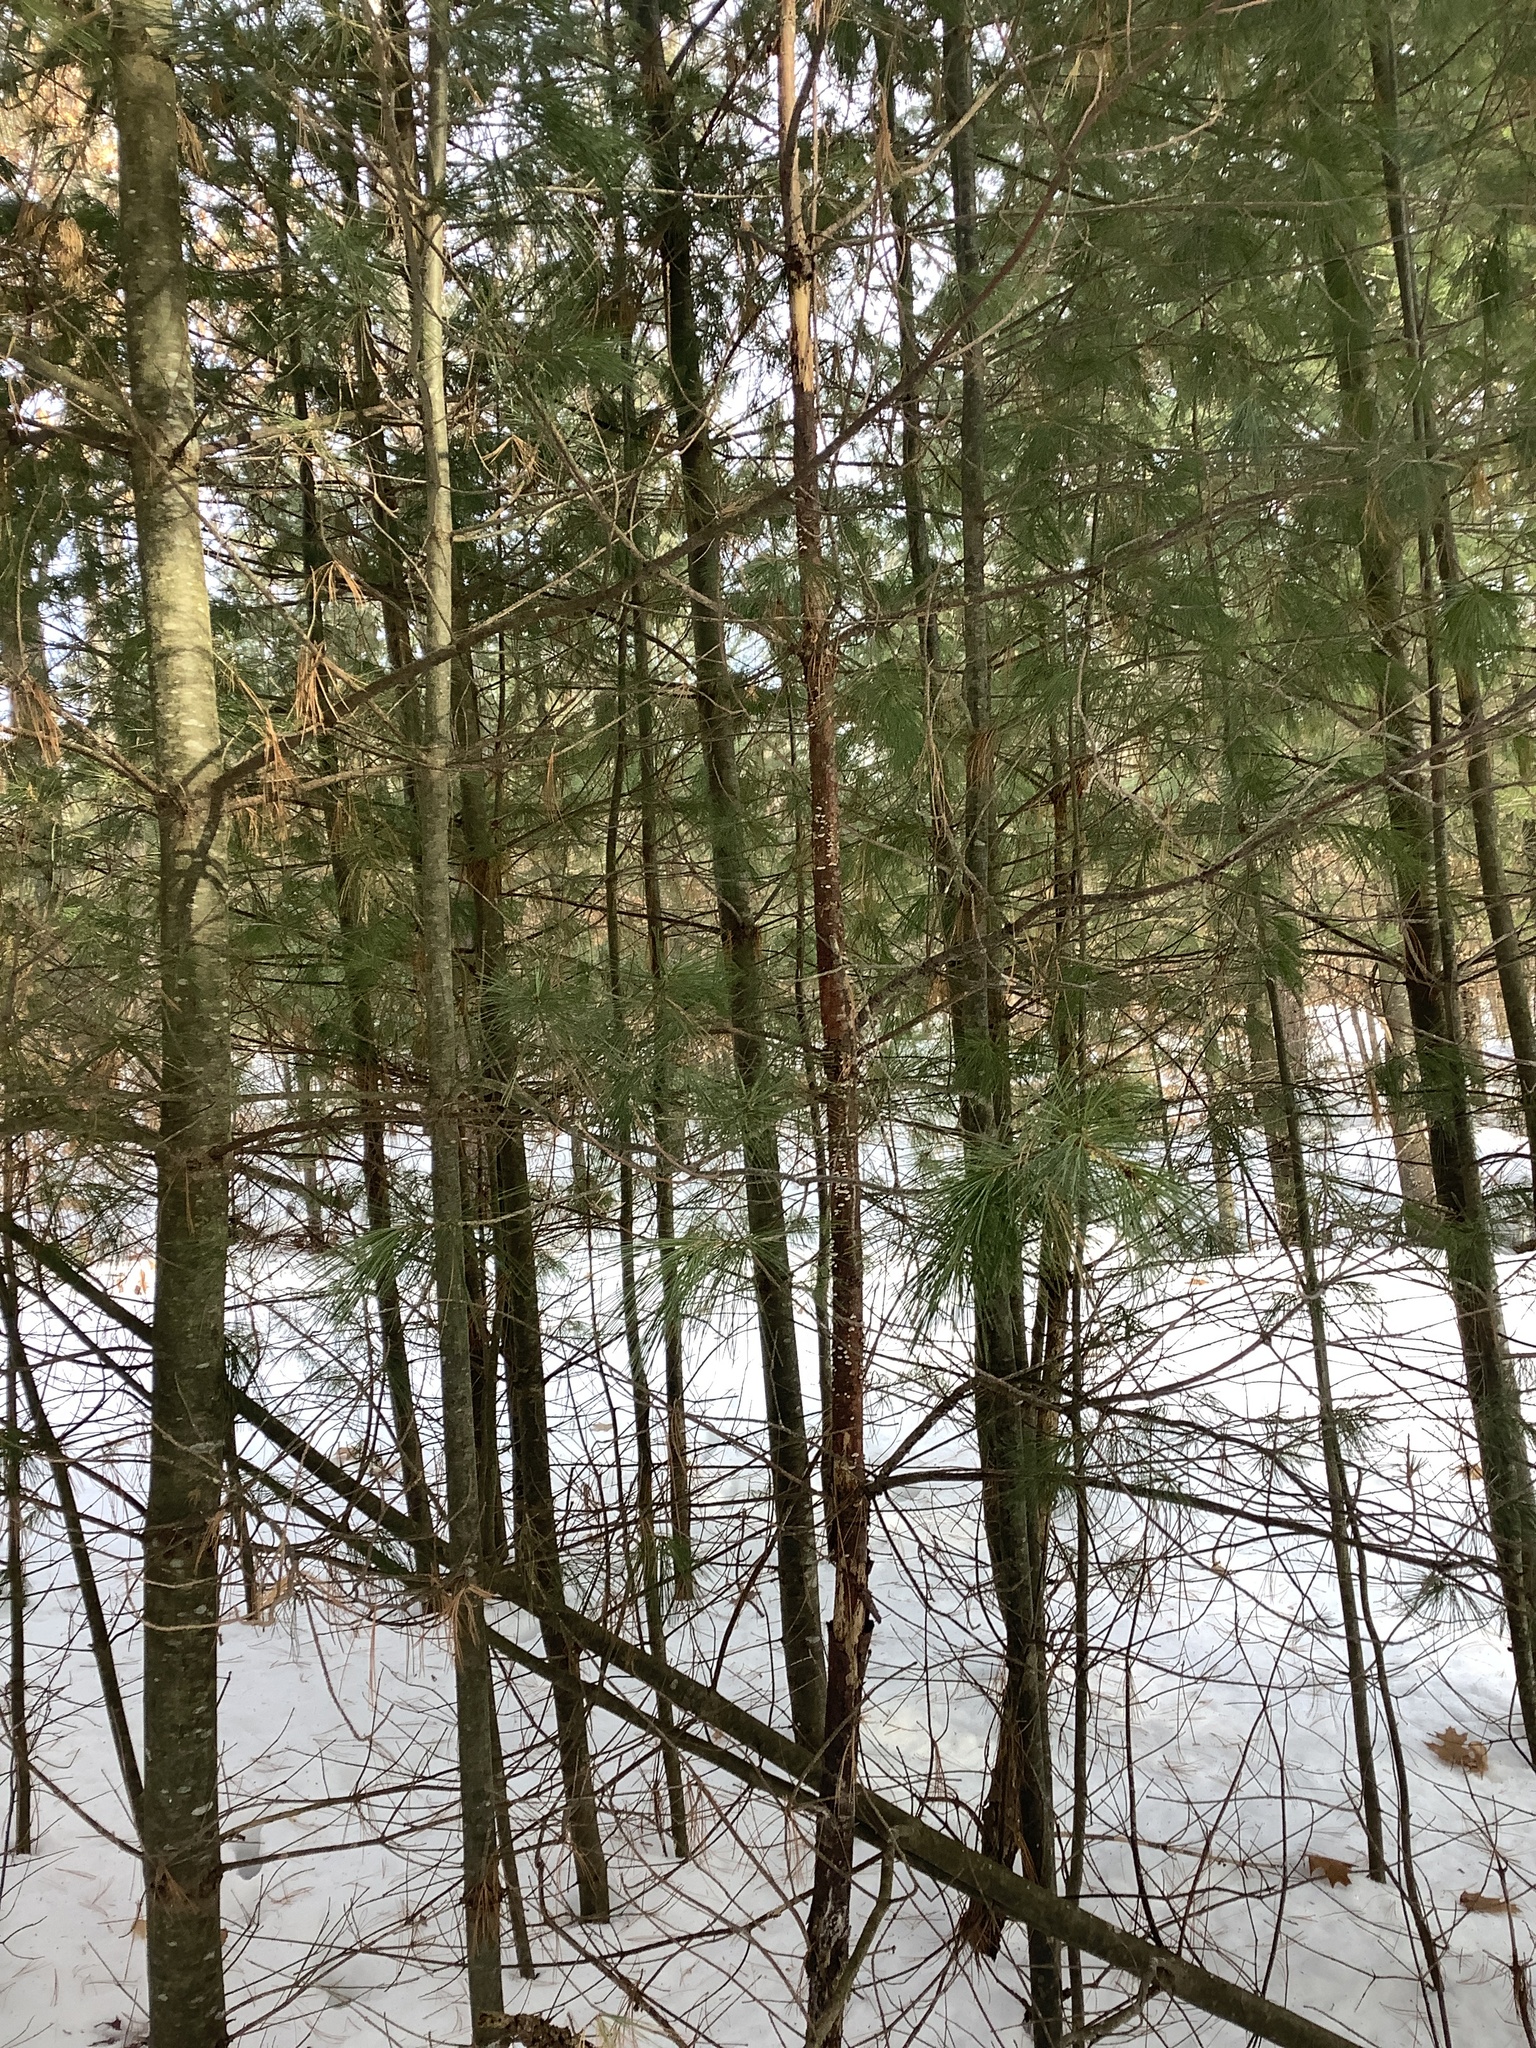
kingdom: Plantae
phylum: Tracheophyta
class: Pinopsida
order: Pinales
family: Pinaceae
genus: Pinus
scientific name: Pinus strobus
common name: Weymouth pine
